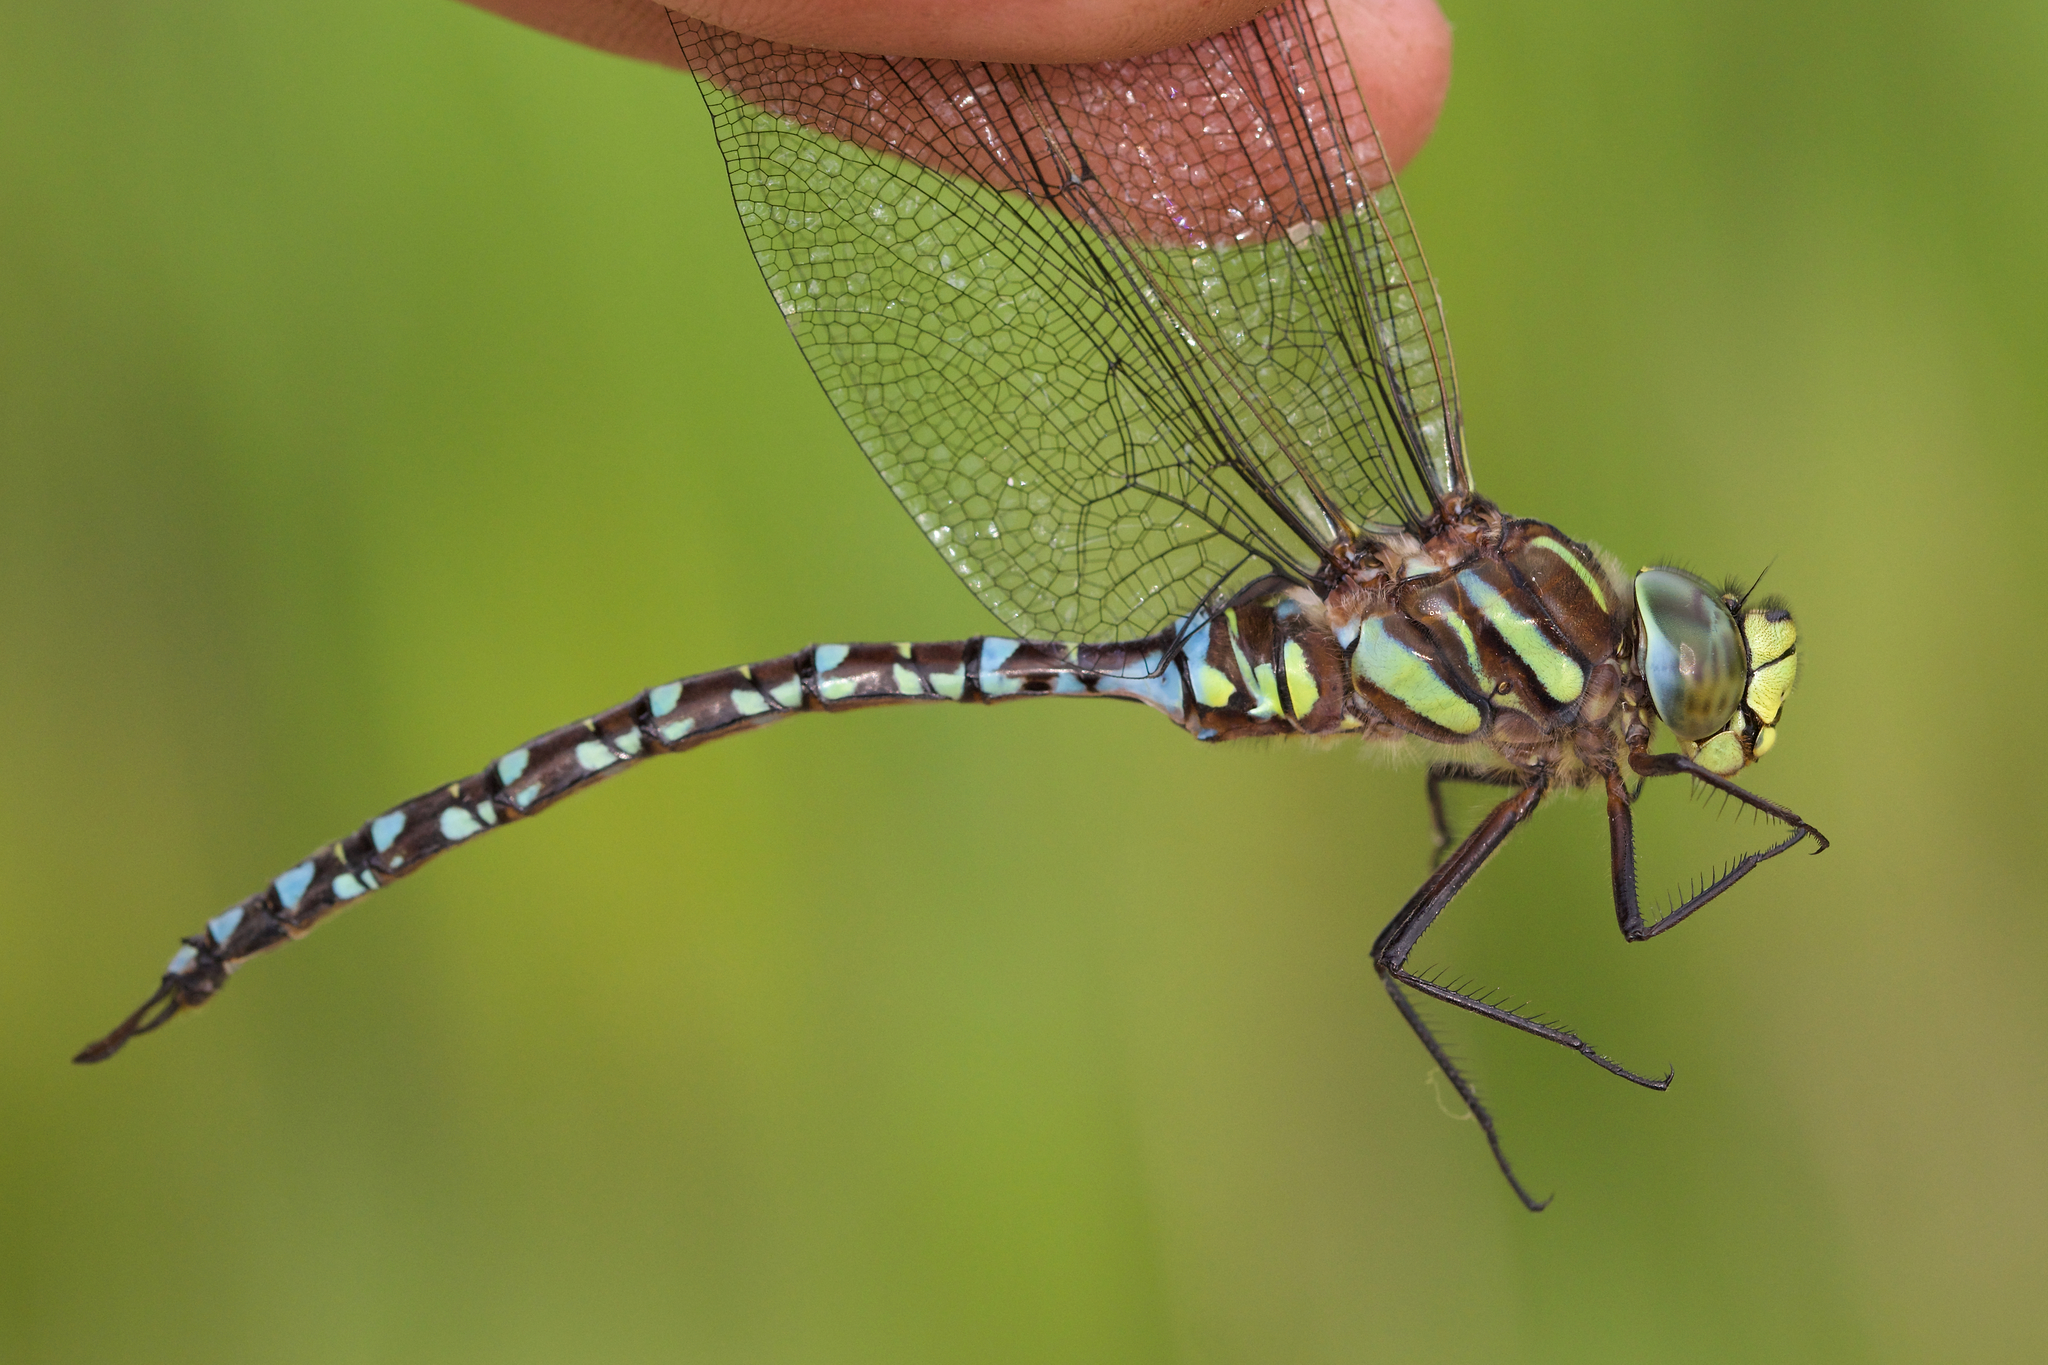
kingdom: Animalia
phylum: Arthropoda
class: Insecta
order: Odonata
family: Aeshnidae
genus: Aeshna
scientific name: Aeshna juncea
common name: Moorland hawker
